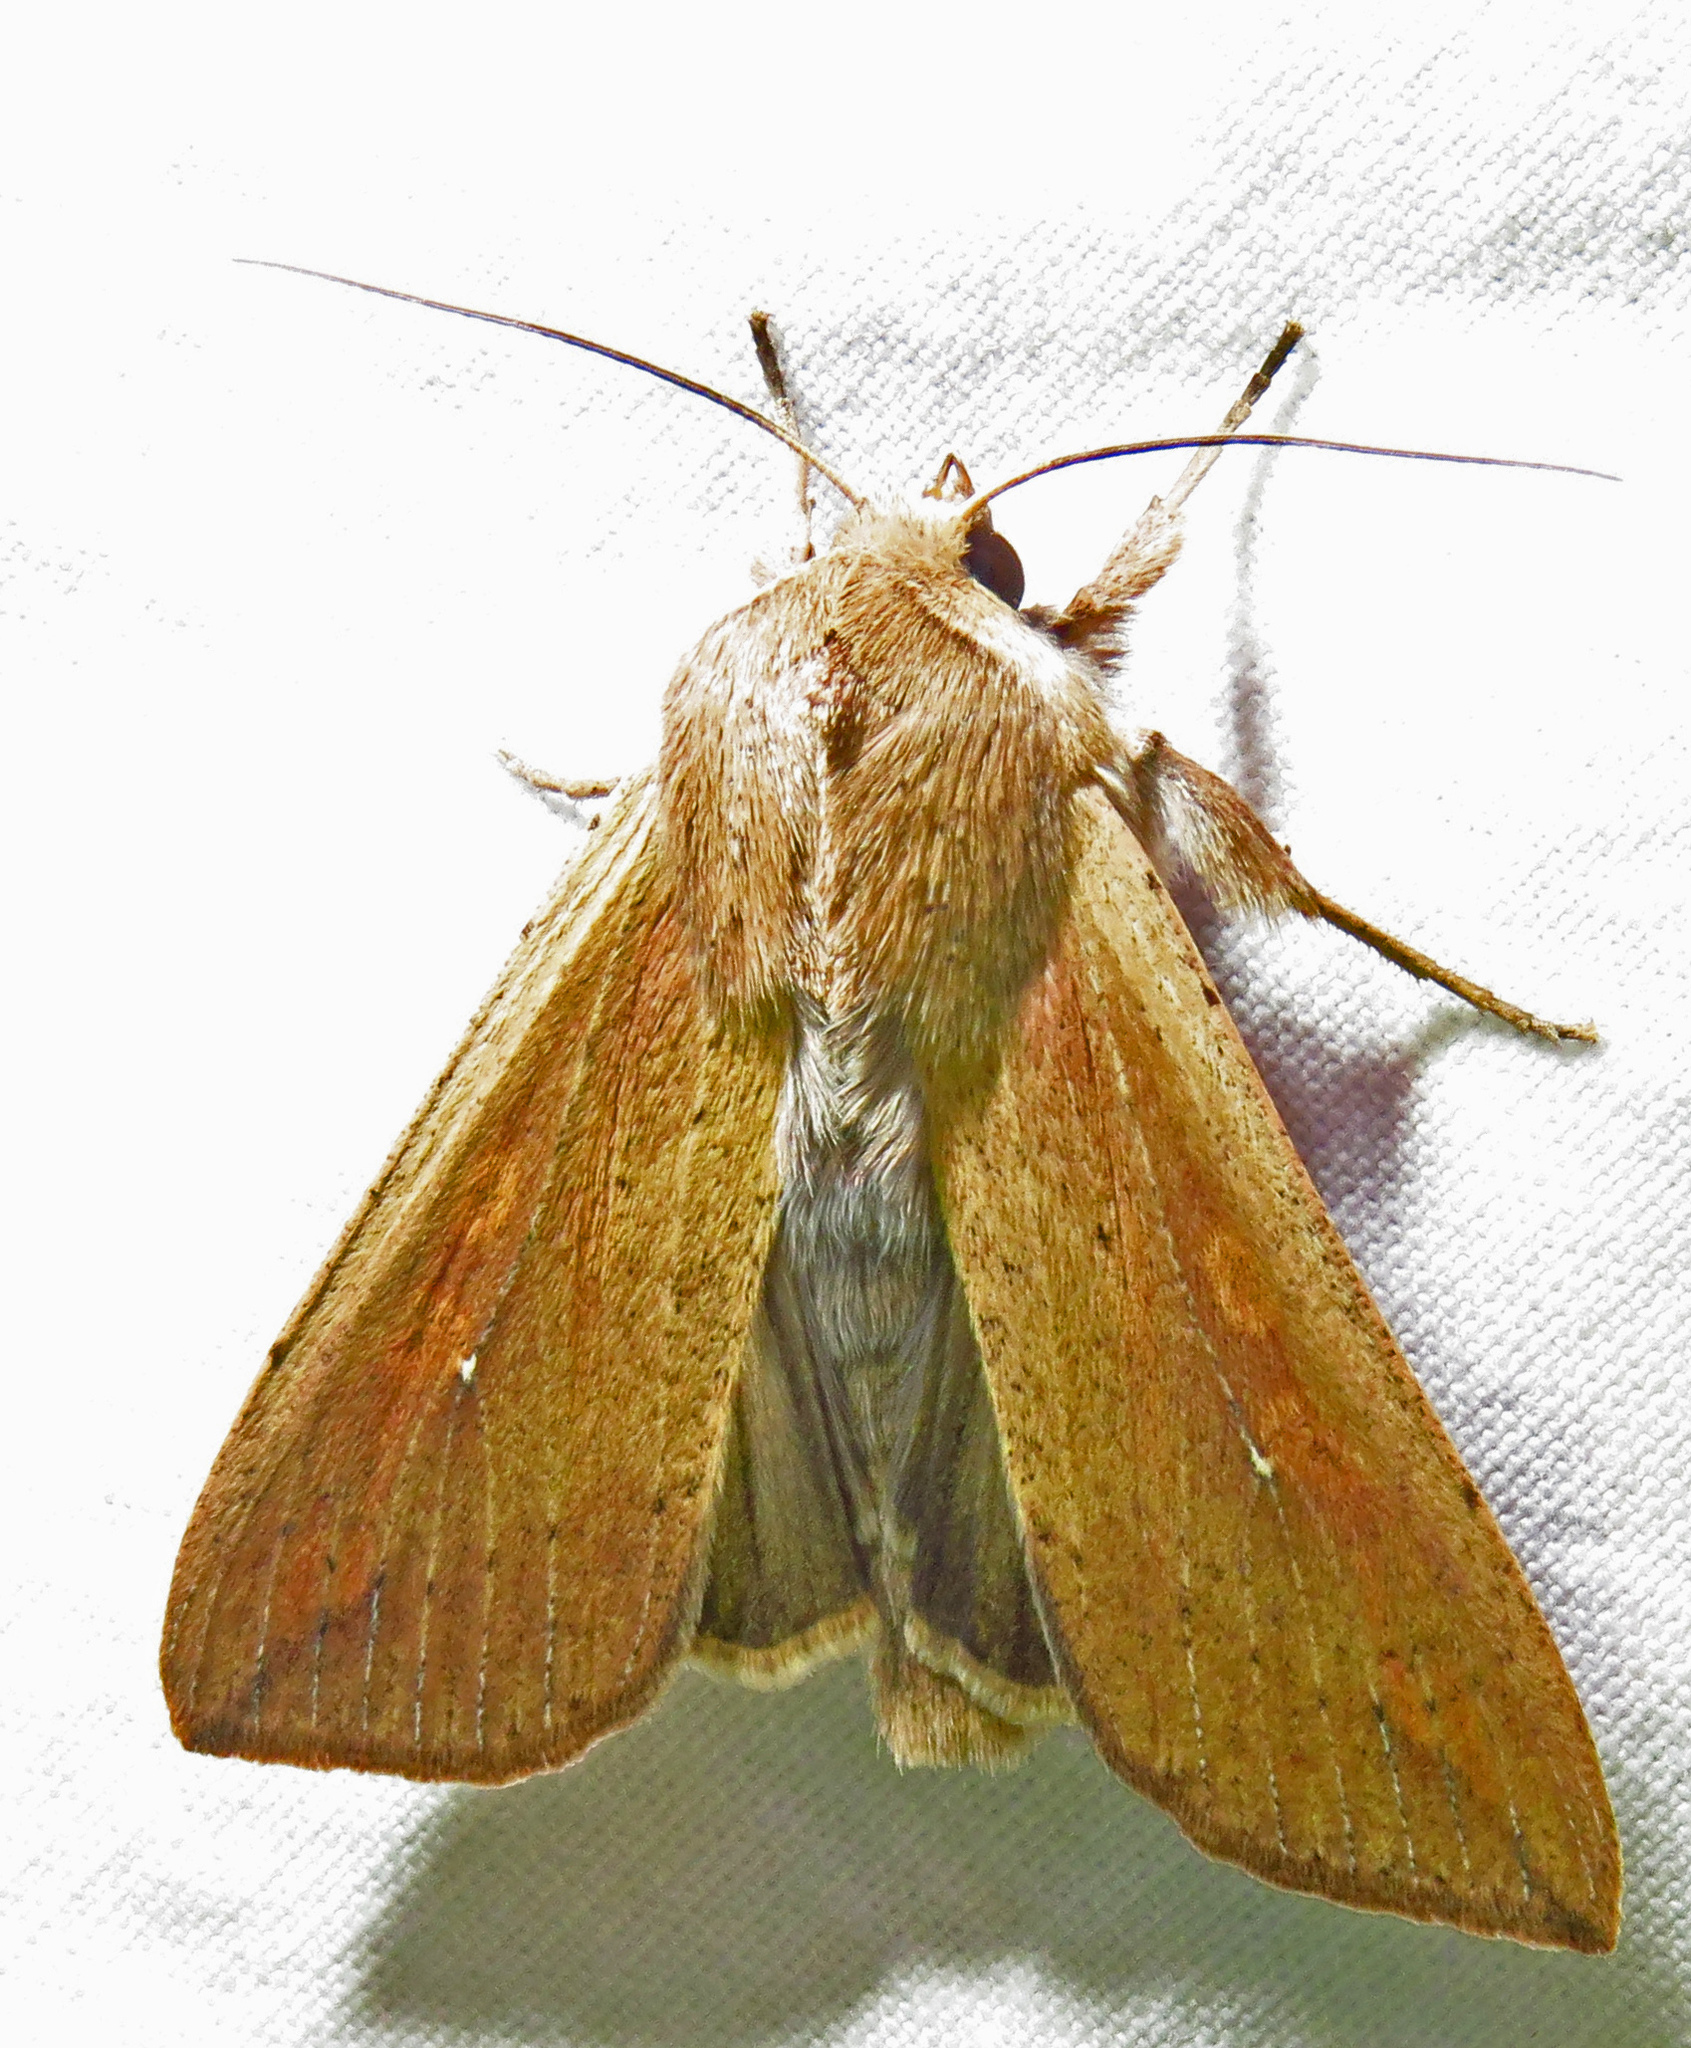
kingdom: Animalia
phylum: Arthropoda
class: Insecta
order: Lepidoptera
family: Noctuidae
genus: Mythimna
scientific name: Mythimna unipuncta
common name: White-speck
